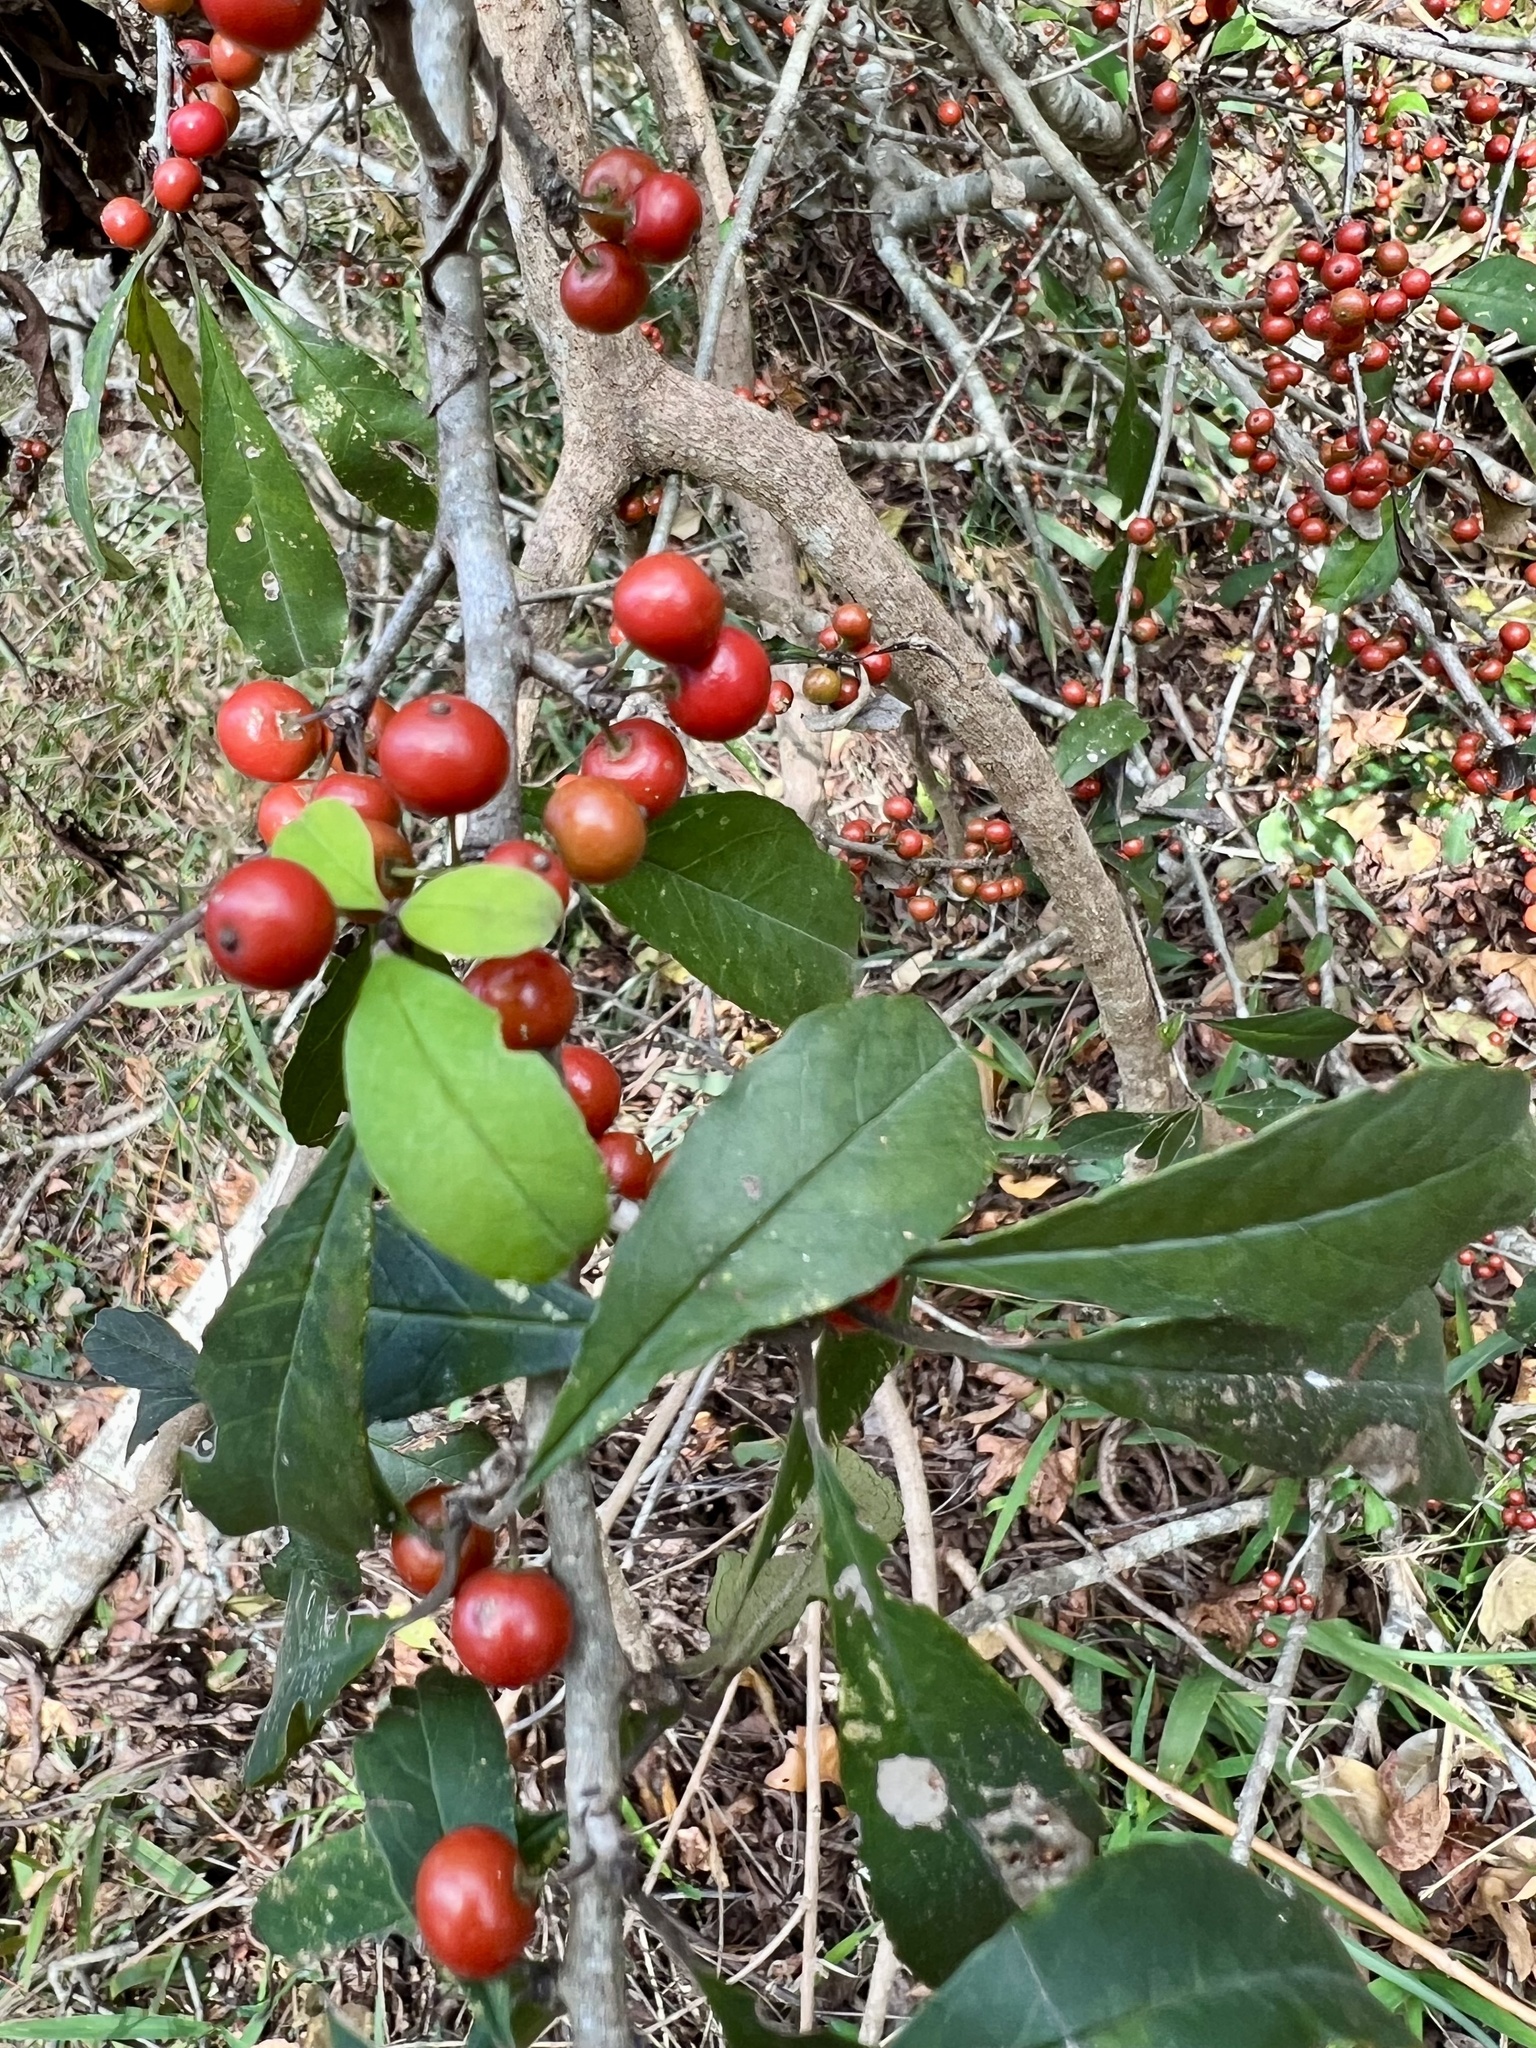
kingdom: Plantae
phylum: Tracheophyta
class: Magnoliopsida
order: Aquifoliales
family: Aquifoliaceae
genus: Ilex
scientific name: Ilex decidua
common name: Possum-haw
